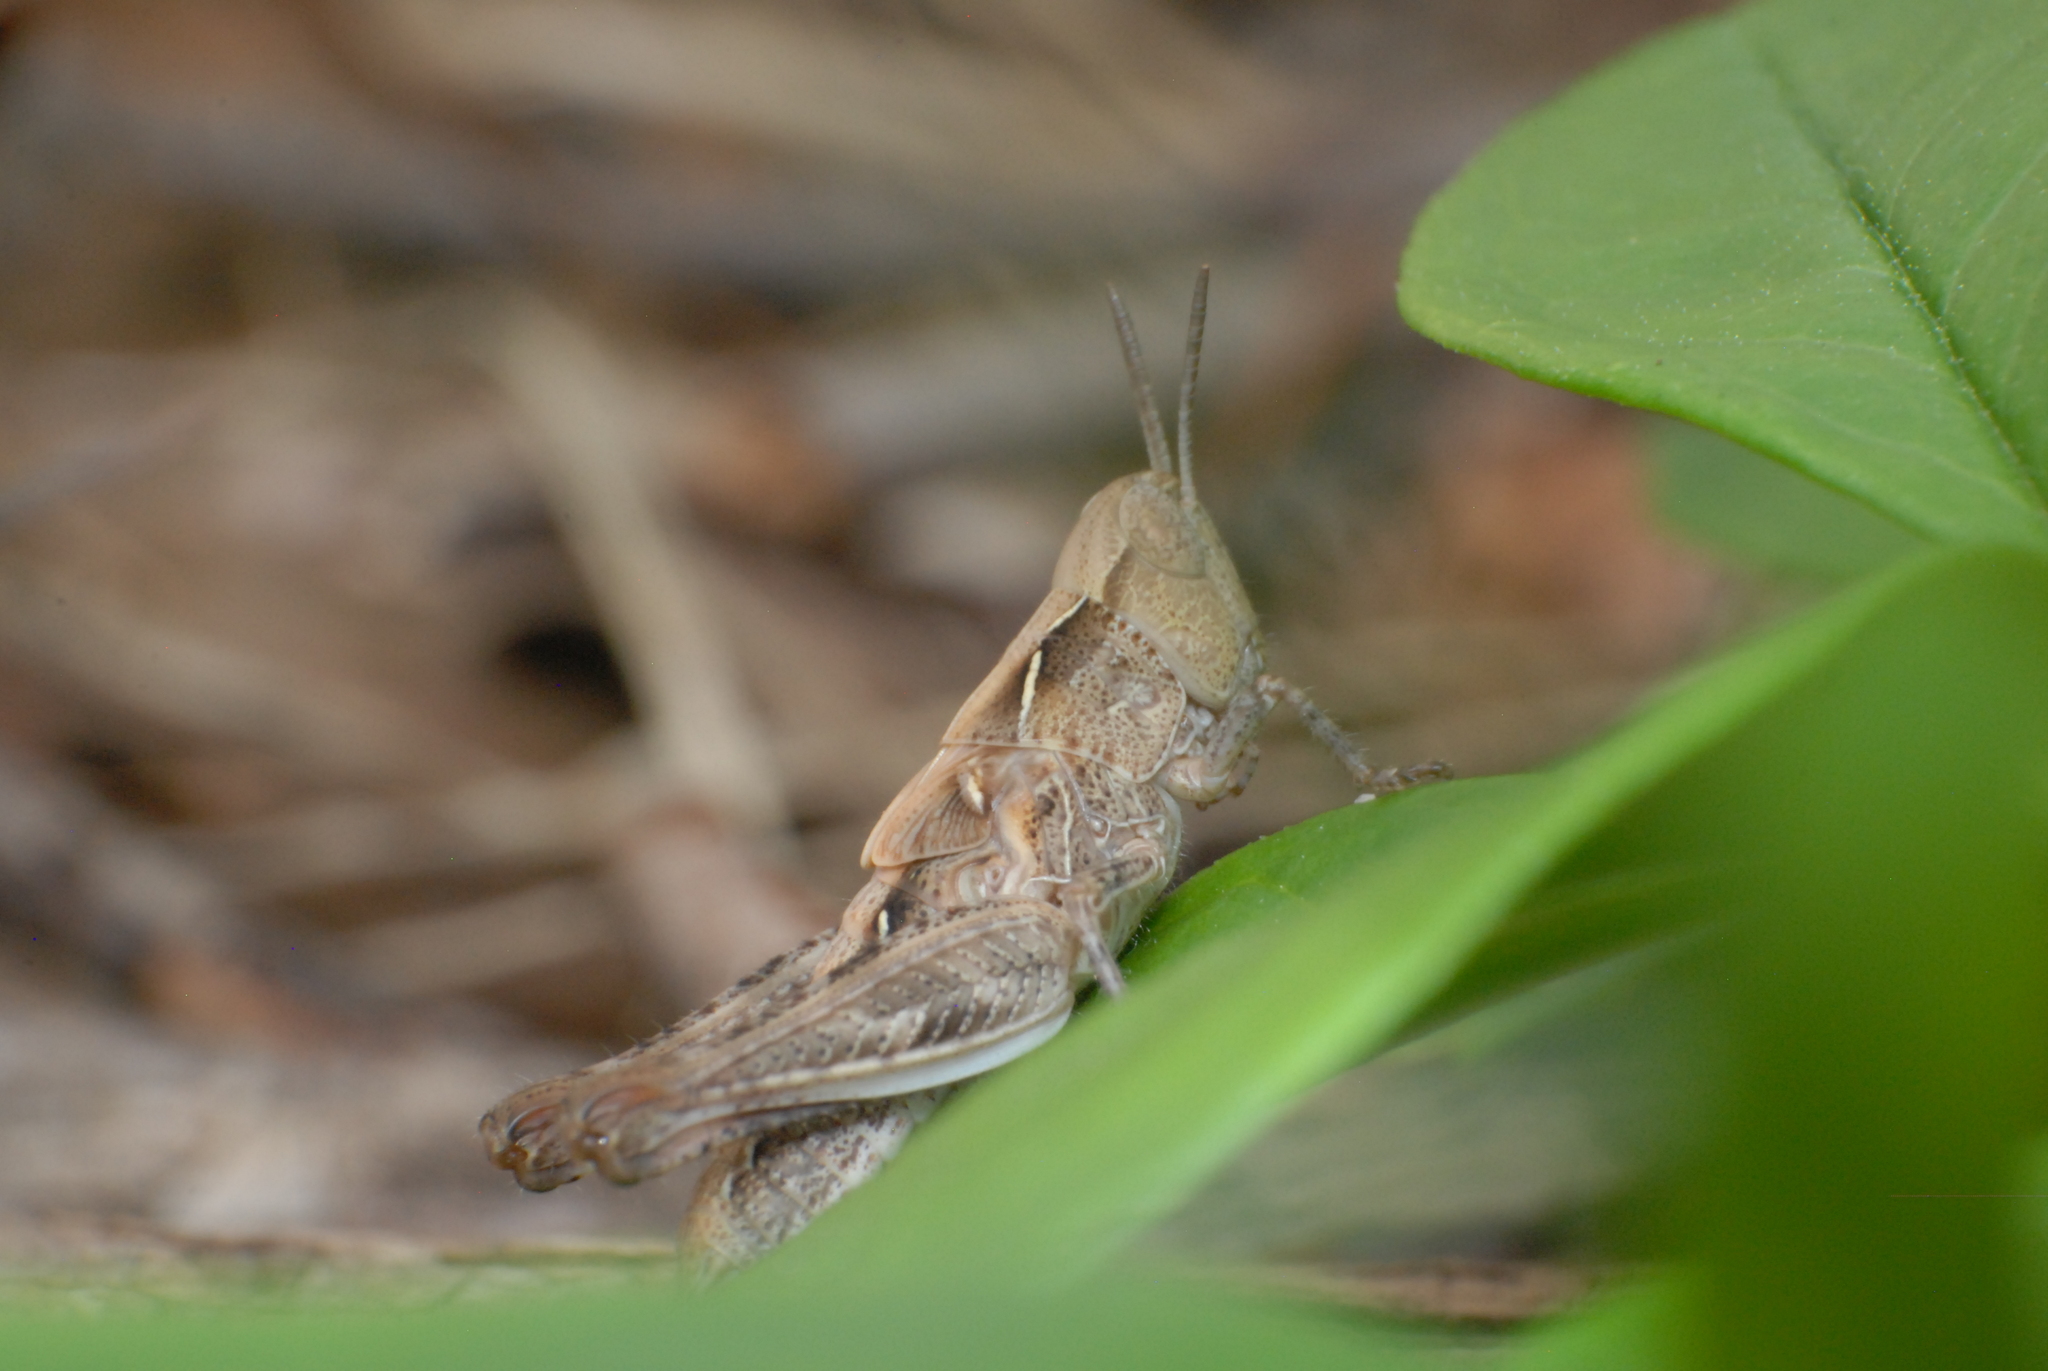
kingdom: Animalia
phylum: Arthropoda
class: Insecta
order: Orthoptera
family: Acrididae
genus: Chortoicetes
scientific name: Chortoicetes terminifera
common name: Australian plague locust
